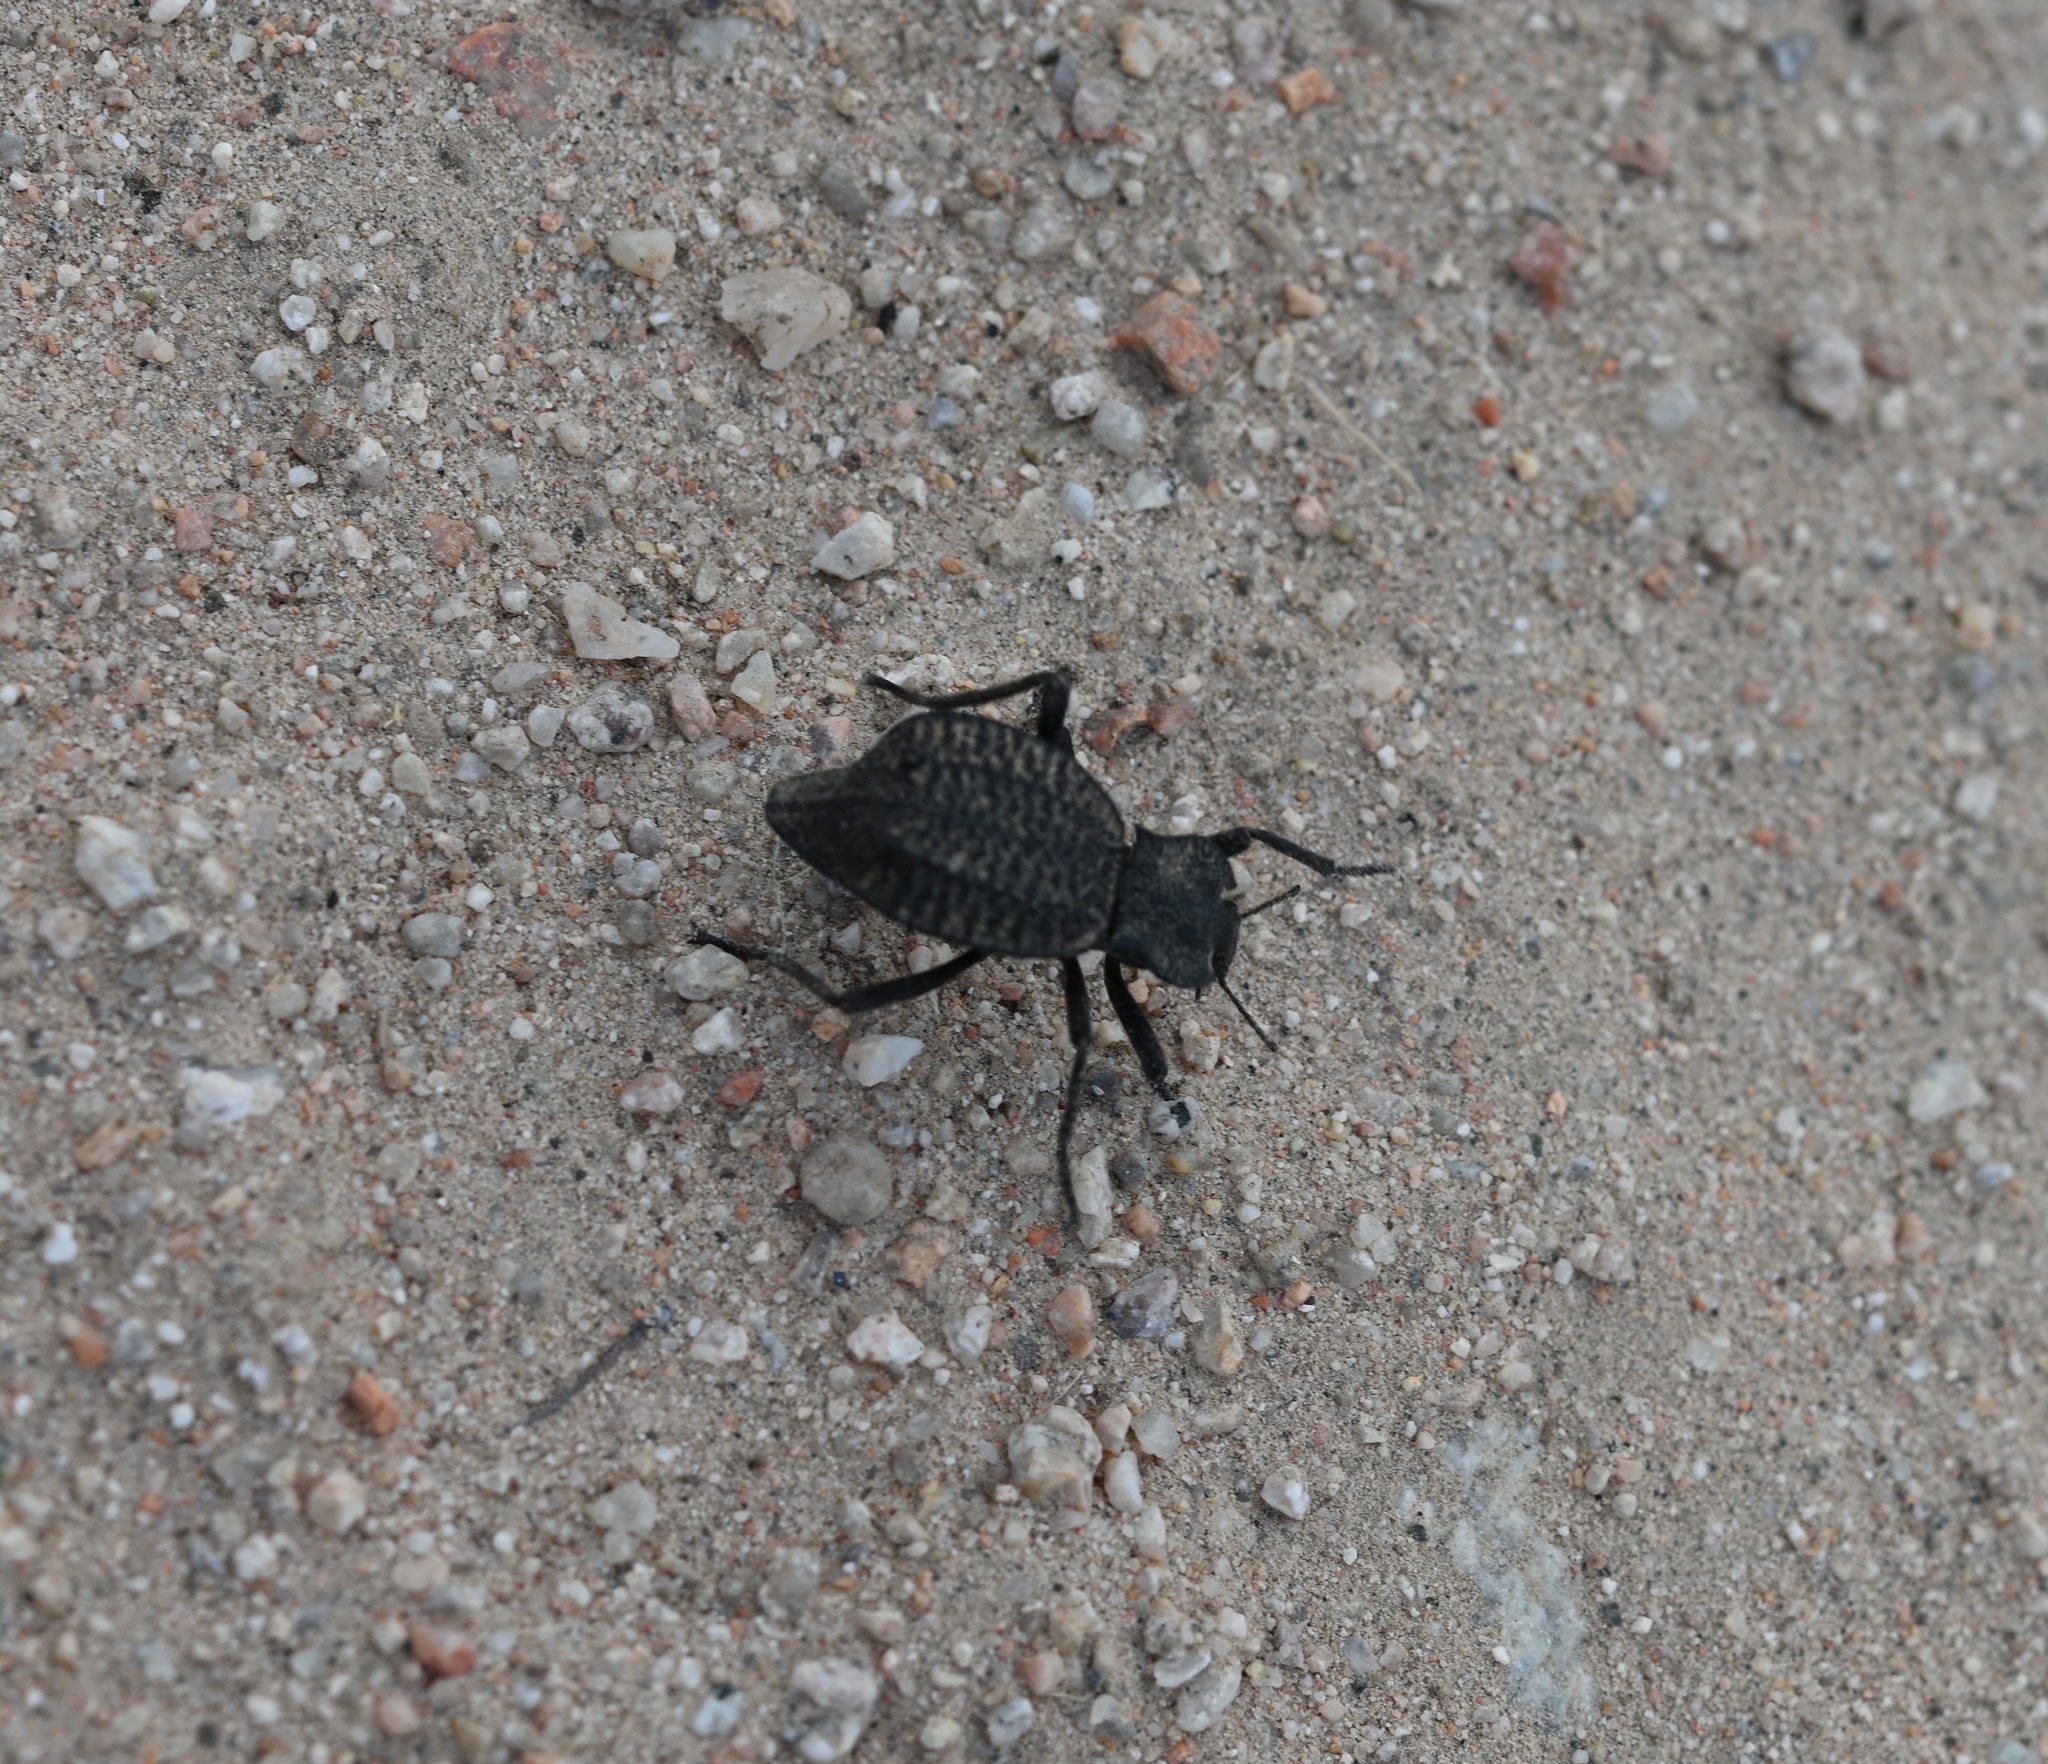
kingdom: Animalia
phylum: Arthropoda
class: Insecta
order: Coleoptera
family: Tenebrionidae
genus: Philolithus
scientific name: Philolithus aegrotus
